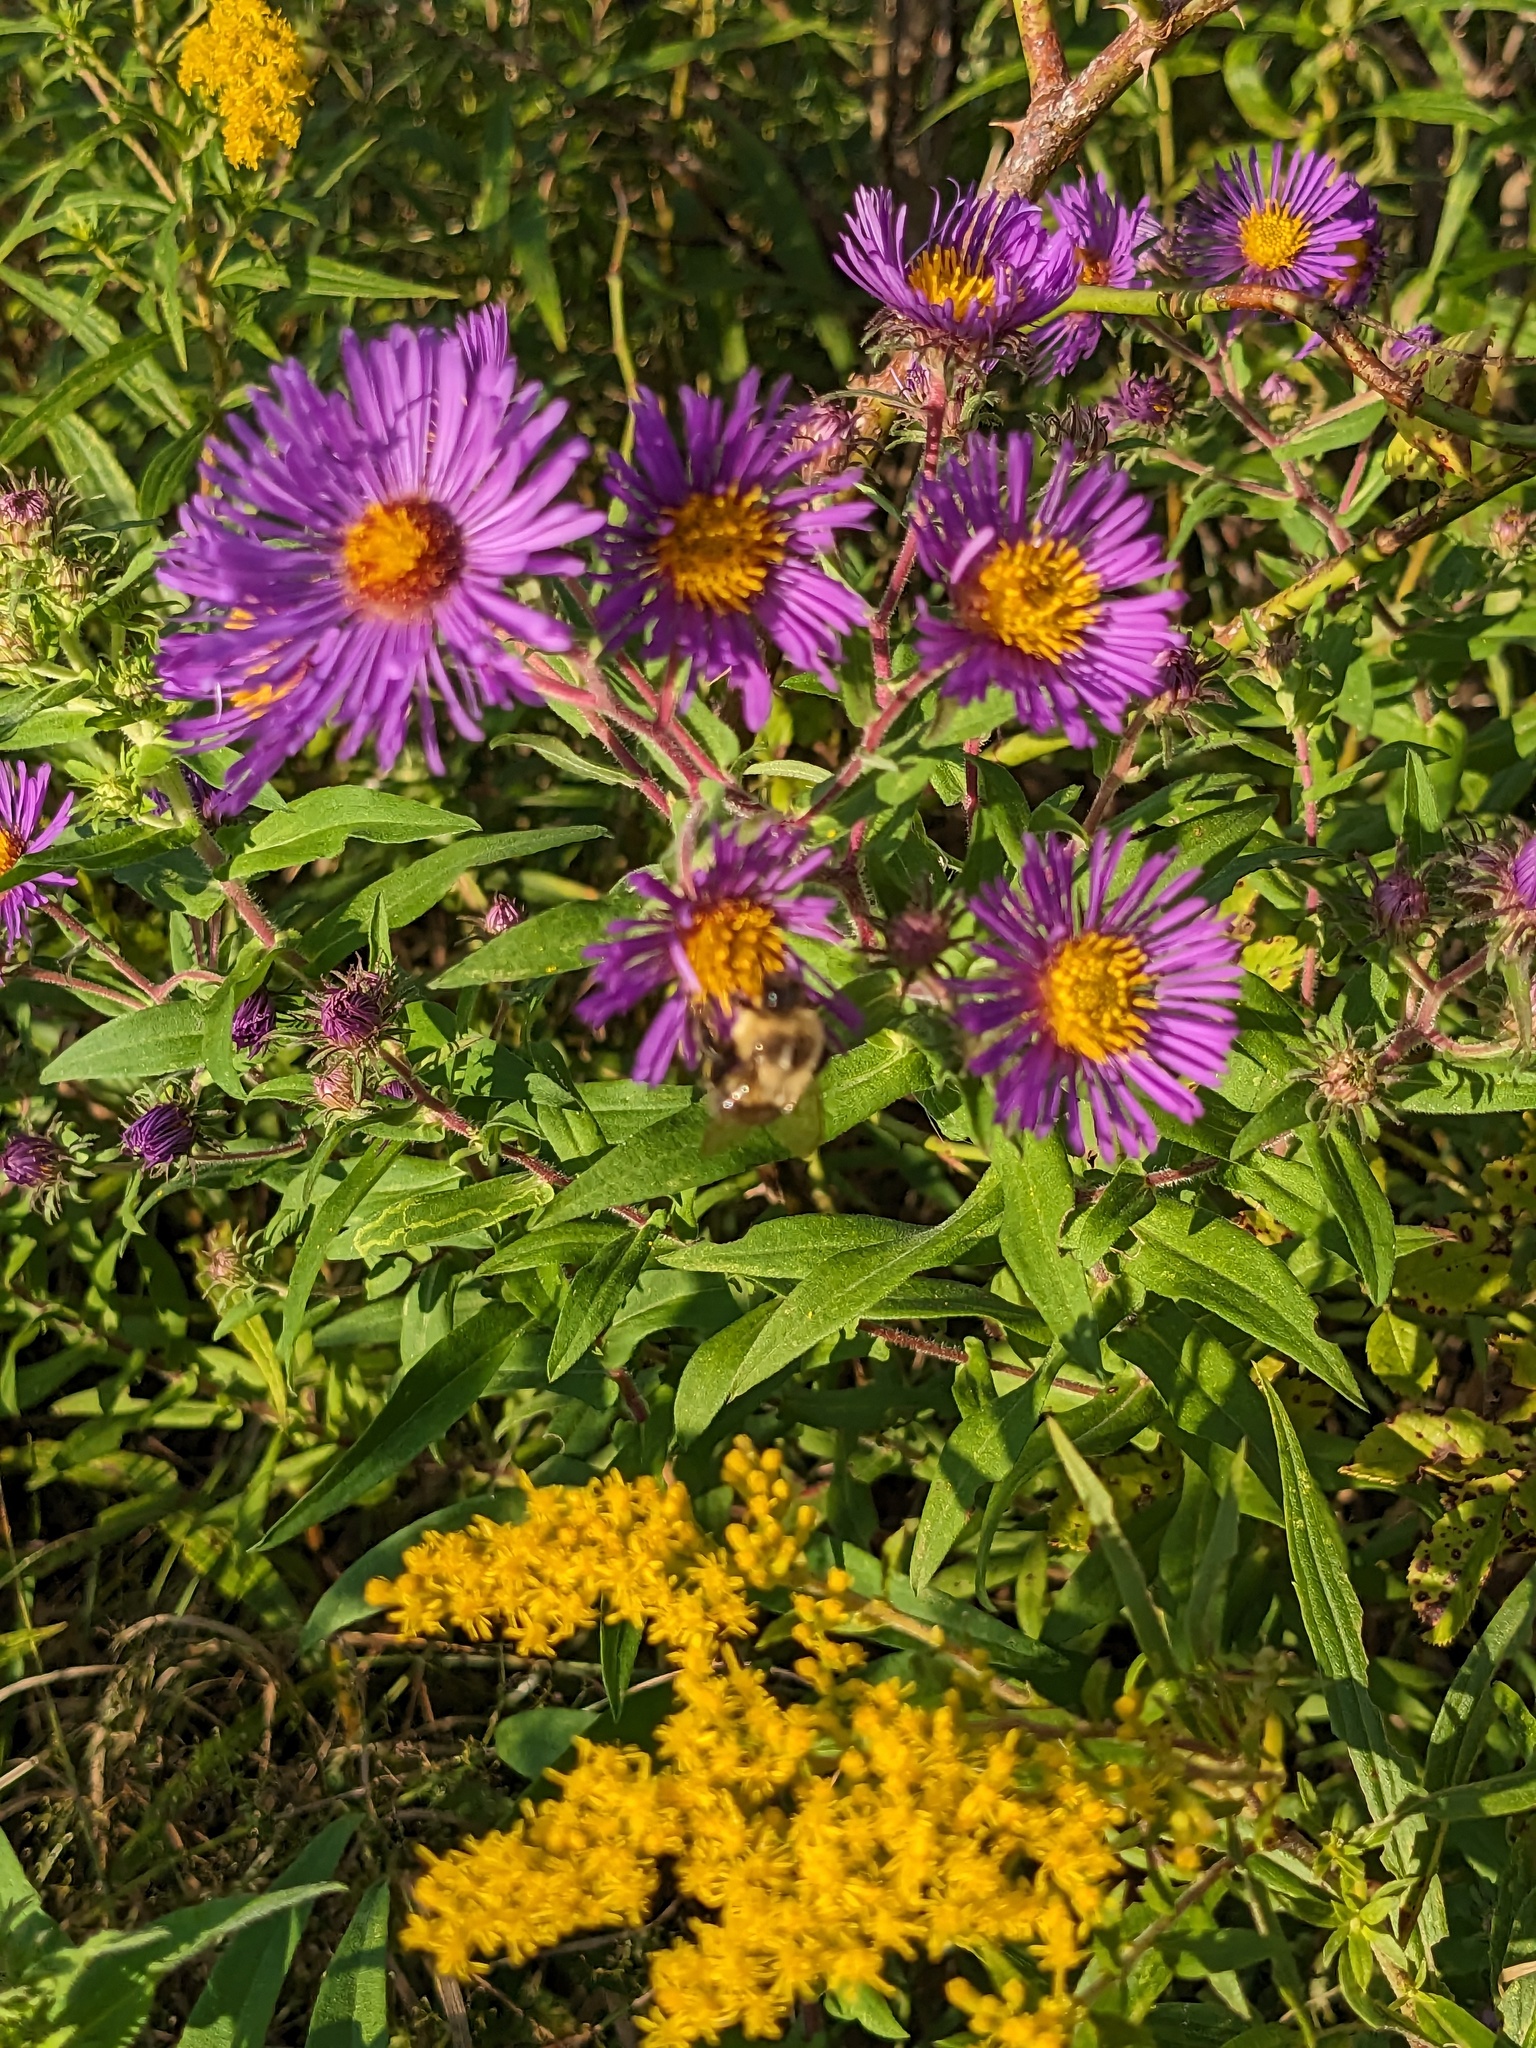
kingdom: Plantae
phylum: Tracheophyta
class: Magnoliopsida
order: Asterales
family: Asteraceae
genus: Symphyotrichum
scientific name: Symphyotrichum novae-angliae
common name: Michaelmas daisy
